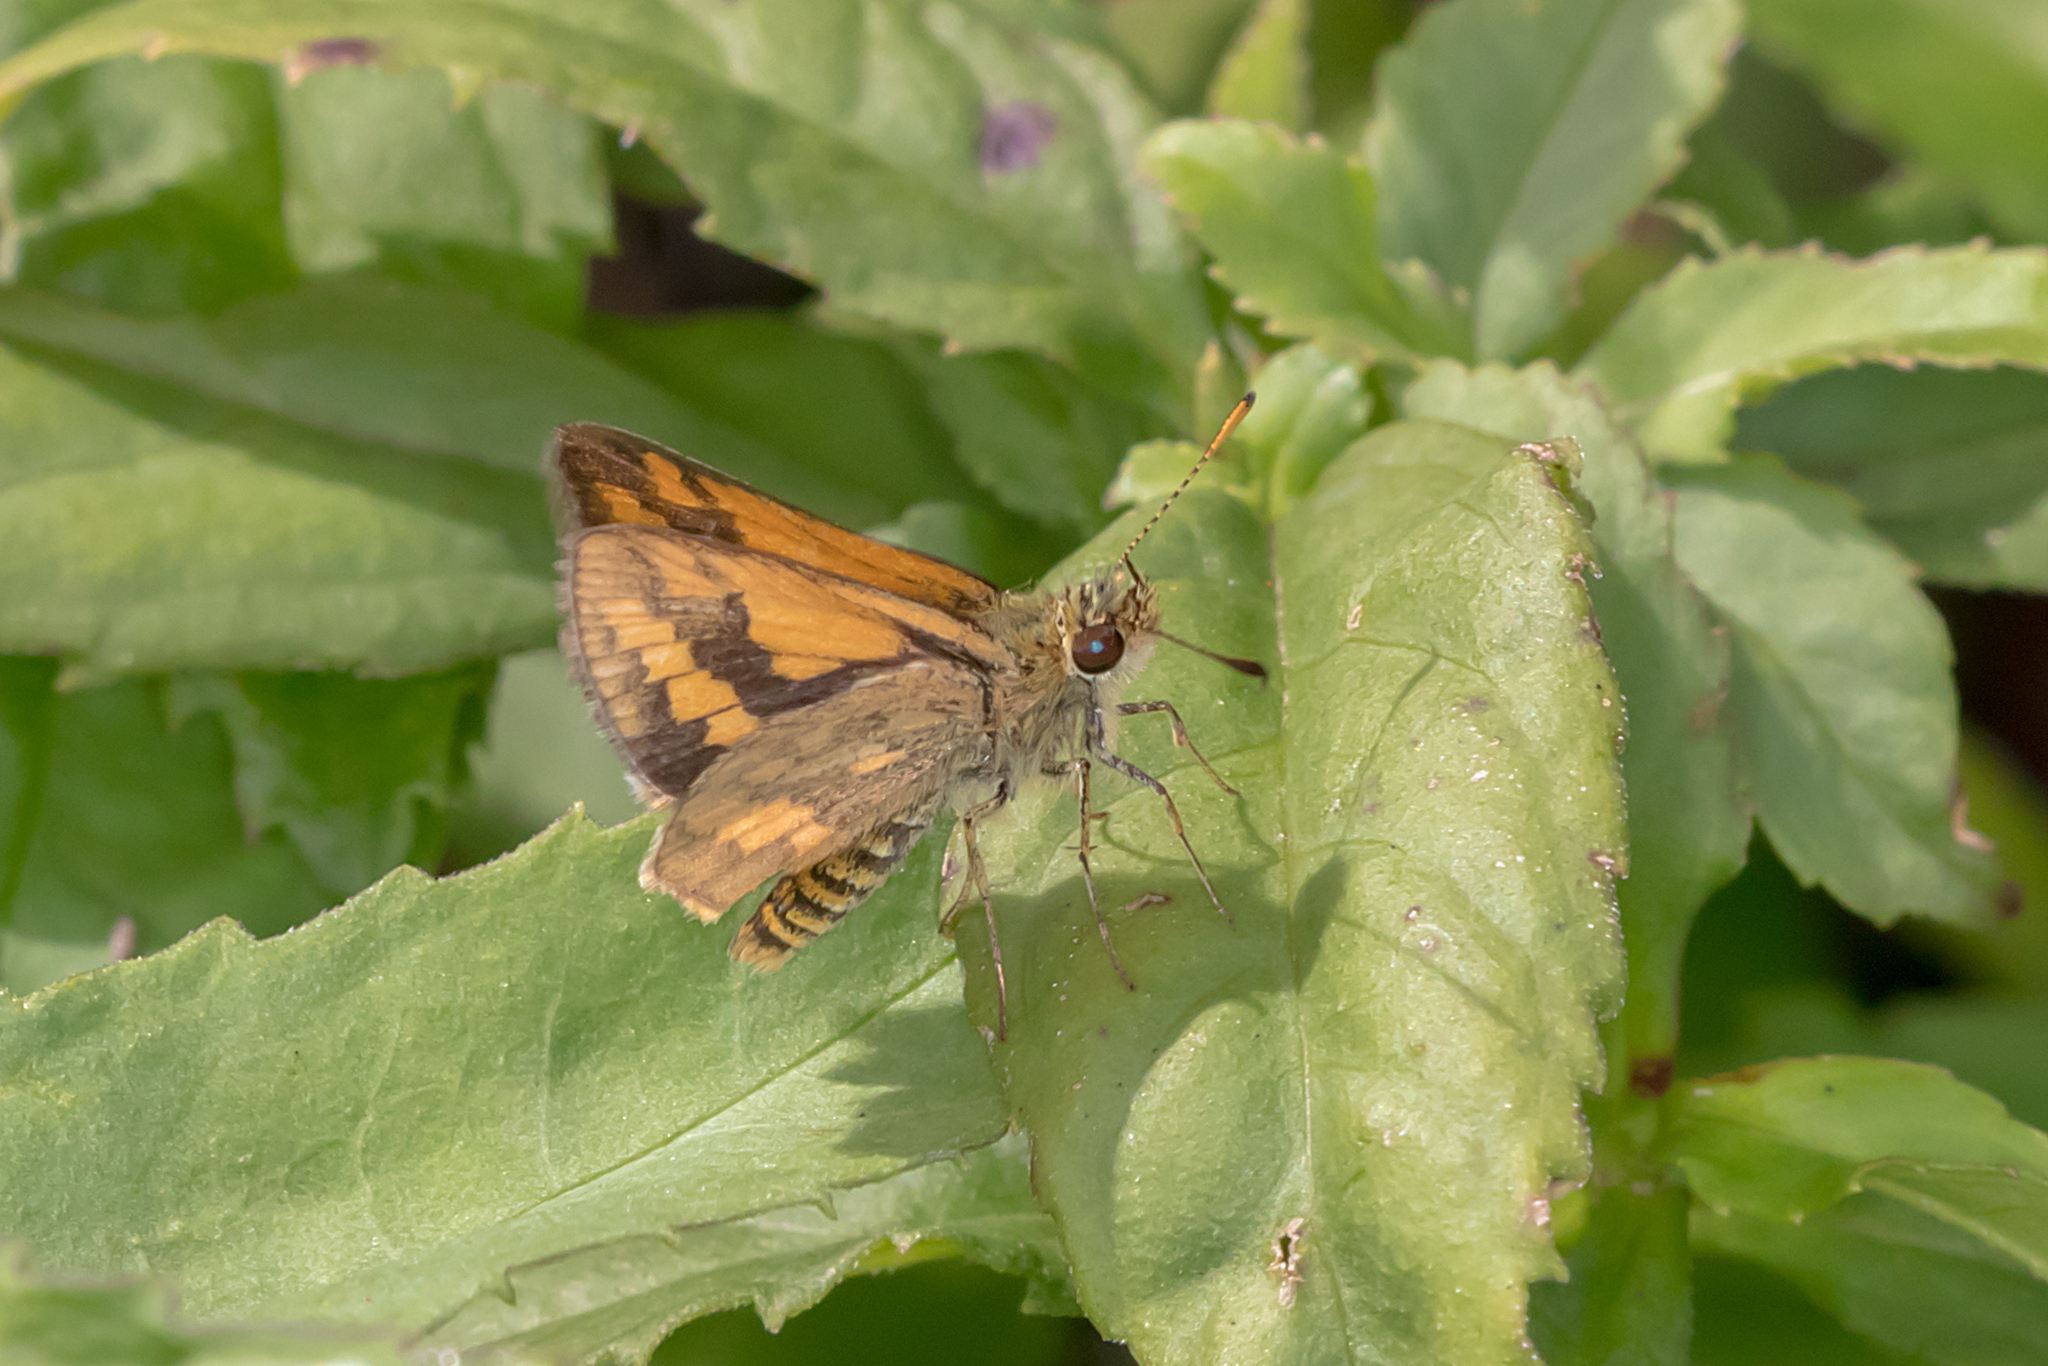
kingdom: Animalia
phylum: Arthropoda
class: Insecta
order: Lepidoptera
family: Hesperiidae
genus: Suniana
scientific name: Suniana sunias
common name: Wide-brand grass-dart
